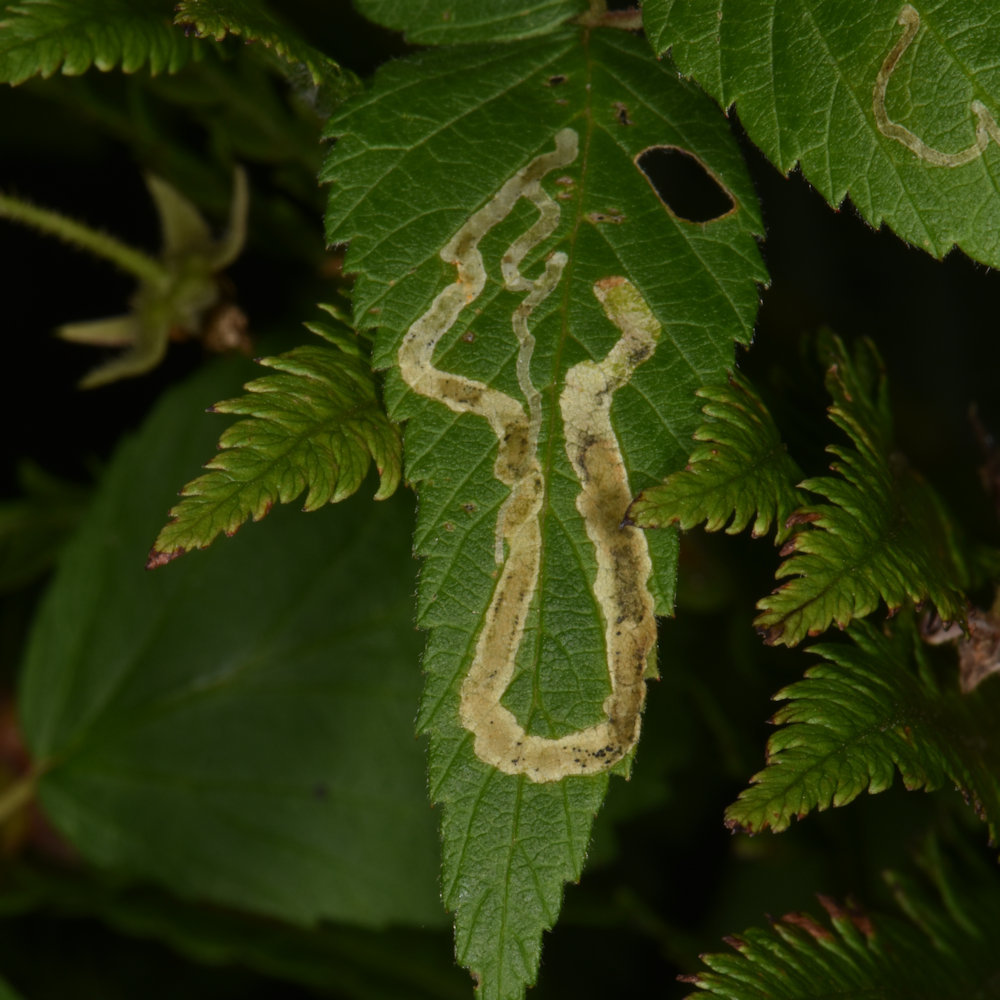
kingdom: Animalia
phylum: Arthropoda
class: Insecta
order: Diptera
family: Agromyzidae
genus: Agromyza
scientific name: Agromyza vockerothi
